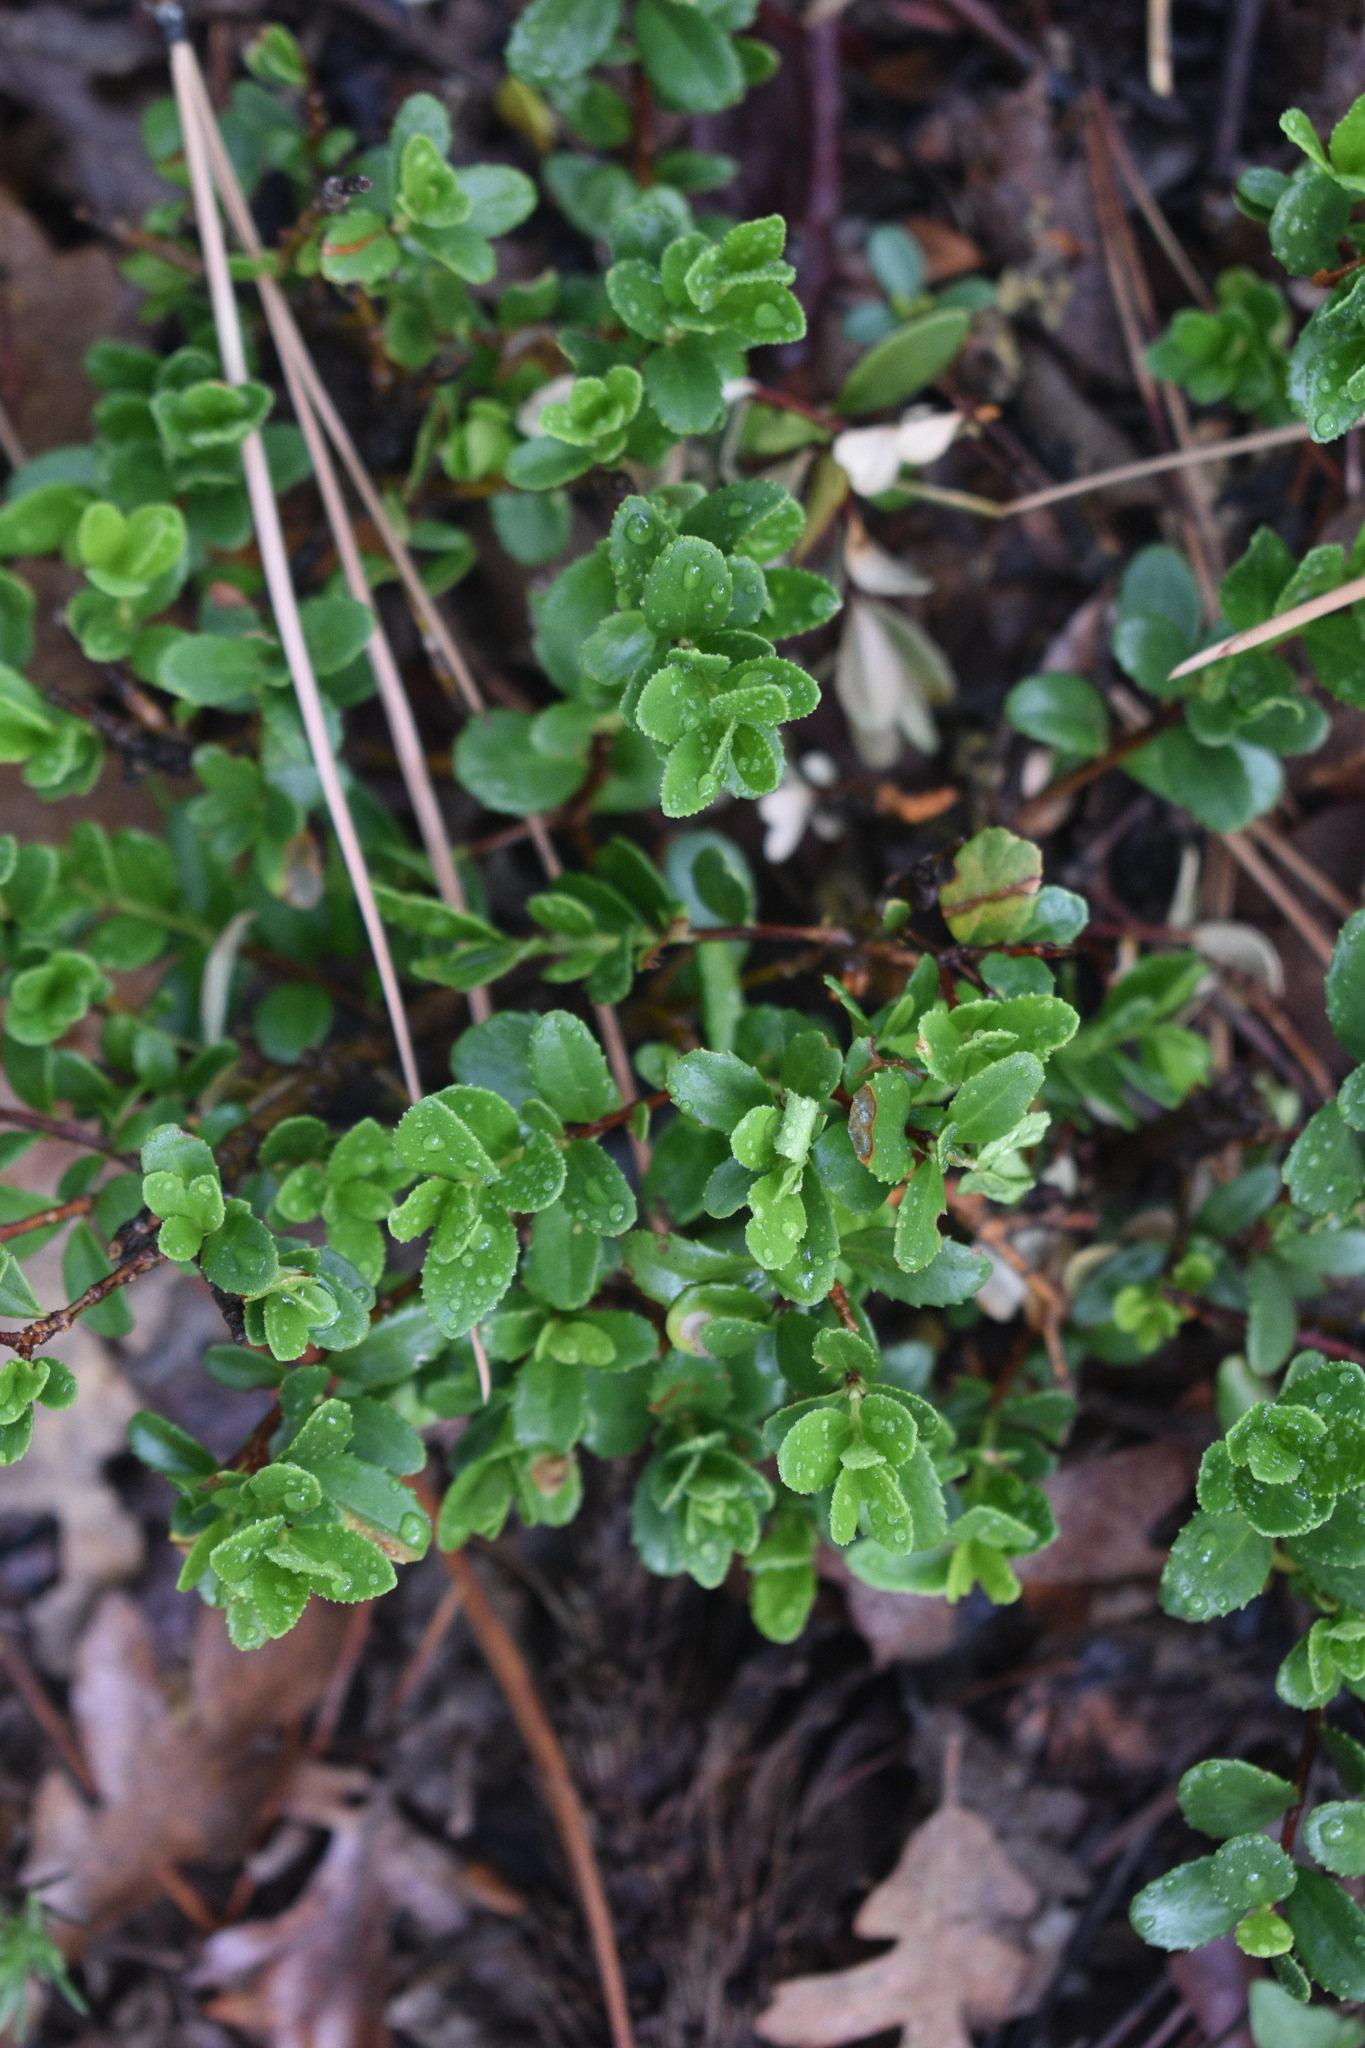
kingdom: Plantae
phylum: Tracheophyta
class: Magnoliopsida
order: Celastrales
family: Celastraceae
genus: Paxistima
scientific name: Paxistima myrsinites
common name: Mountain-lover
